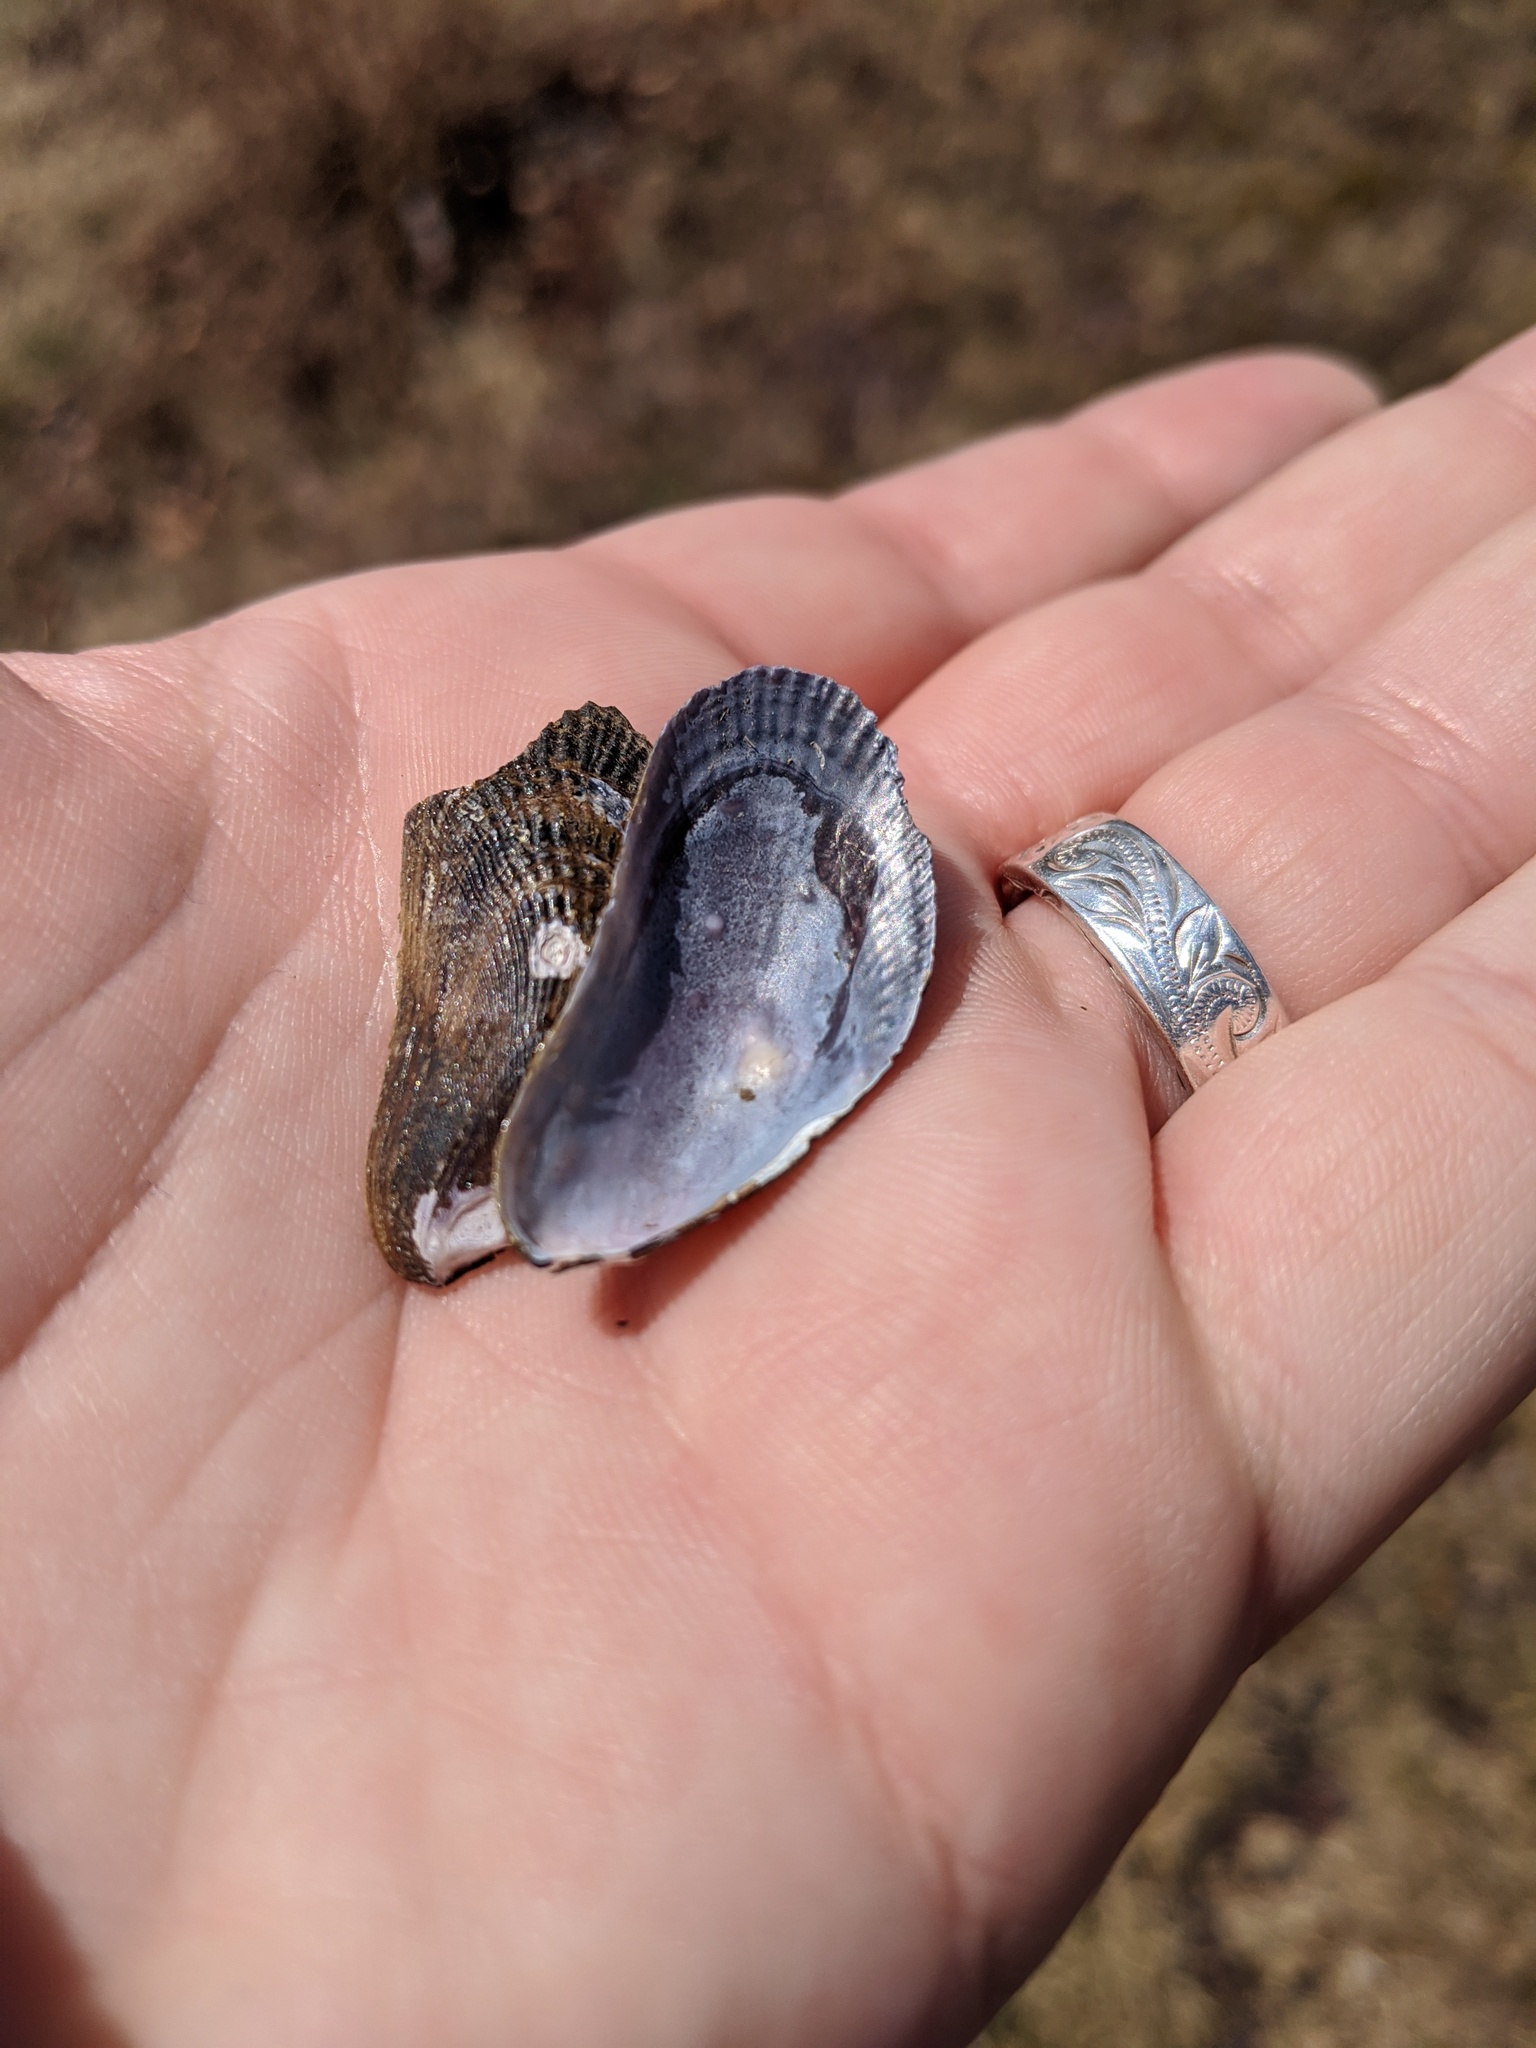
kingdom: Animalia
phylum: Mollusca
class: Bivalvia
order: Mytilida
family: Mytilidae
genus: Geukensia
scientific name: Geukensia demissa
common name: Ribbed mussel
